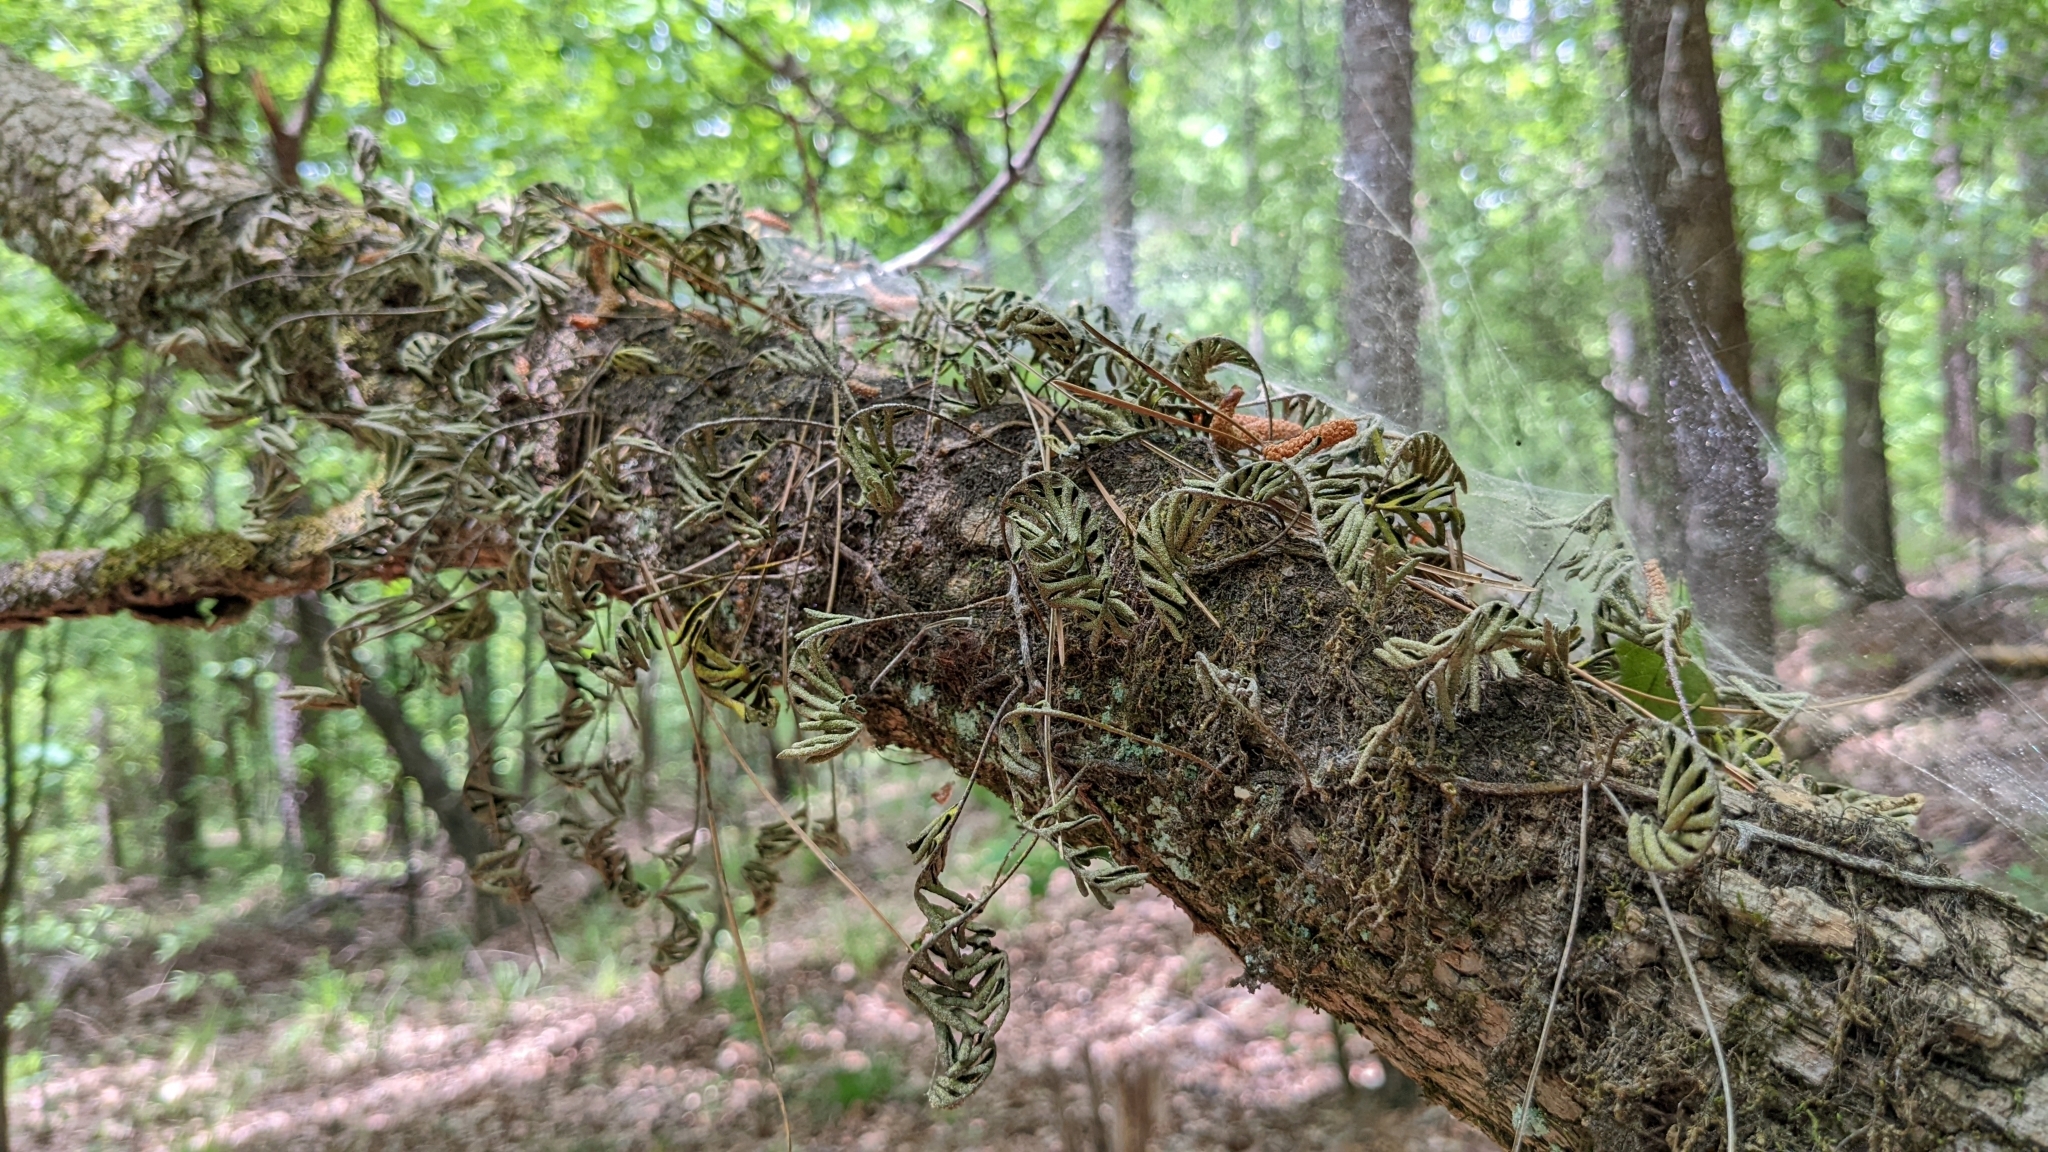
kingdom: Plantae
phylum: Tracheophyta
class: Polypodiopsida
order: Polypodiales
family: Polypodiaceae
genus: Pleopeltis
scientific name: Pleopeltis michauxiana
